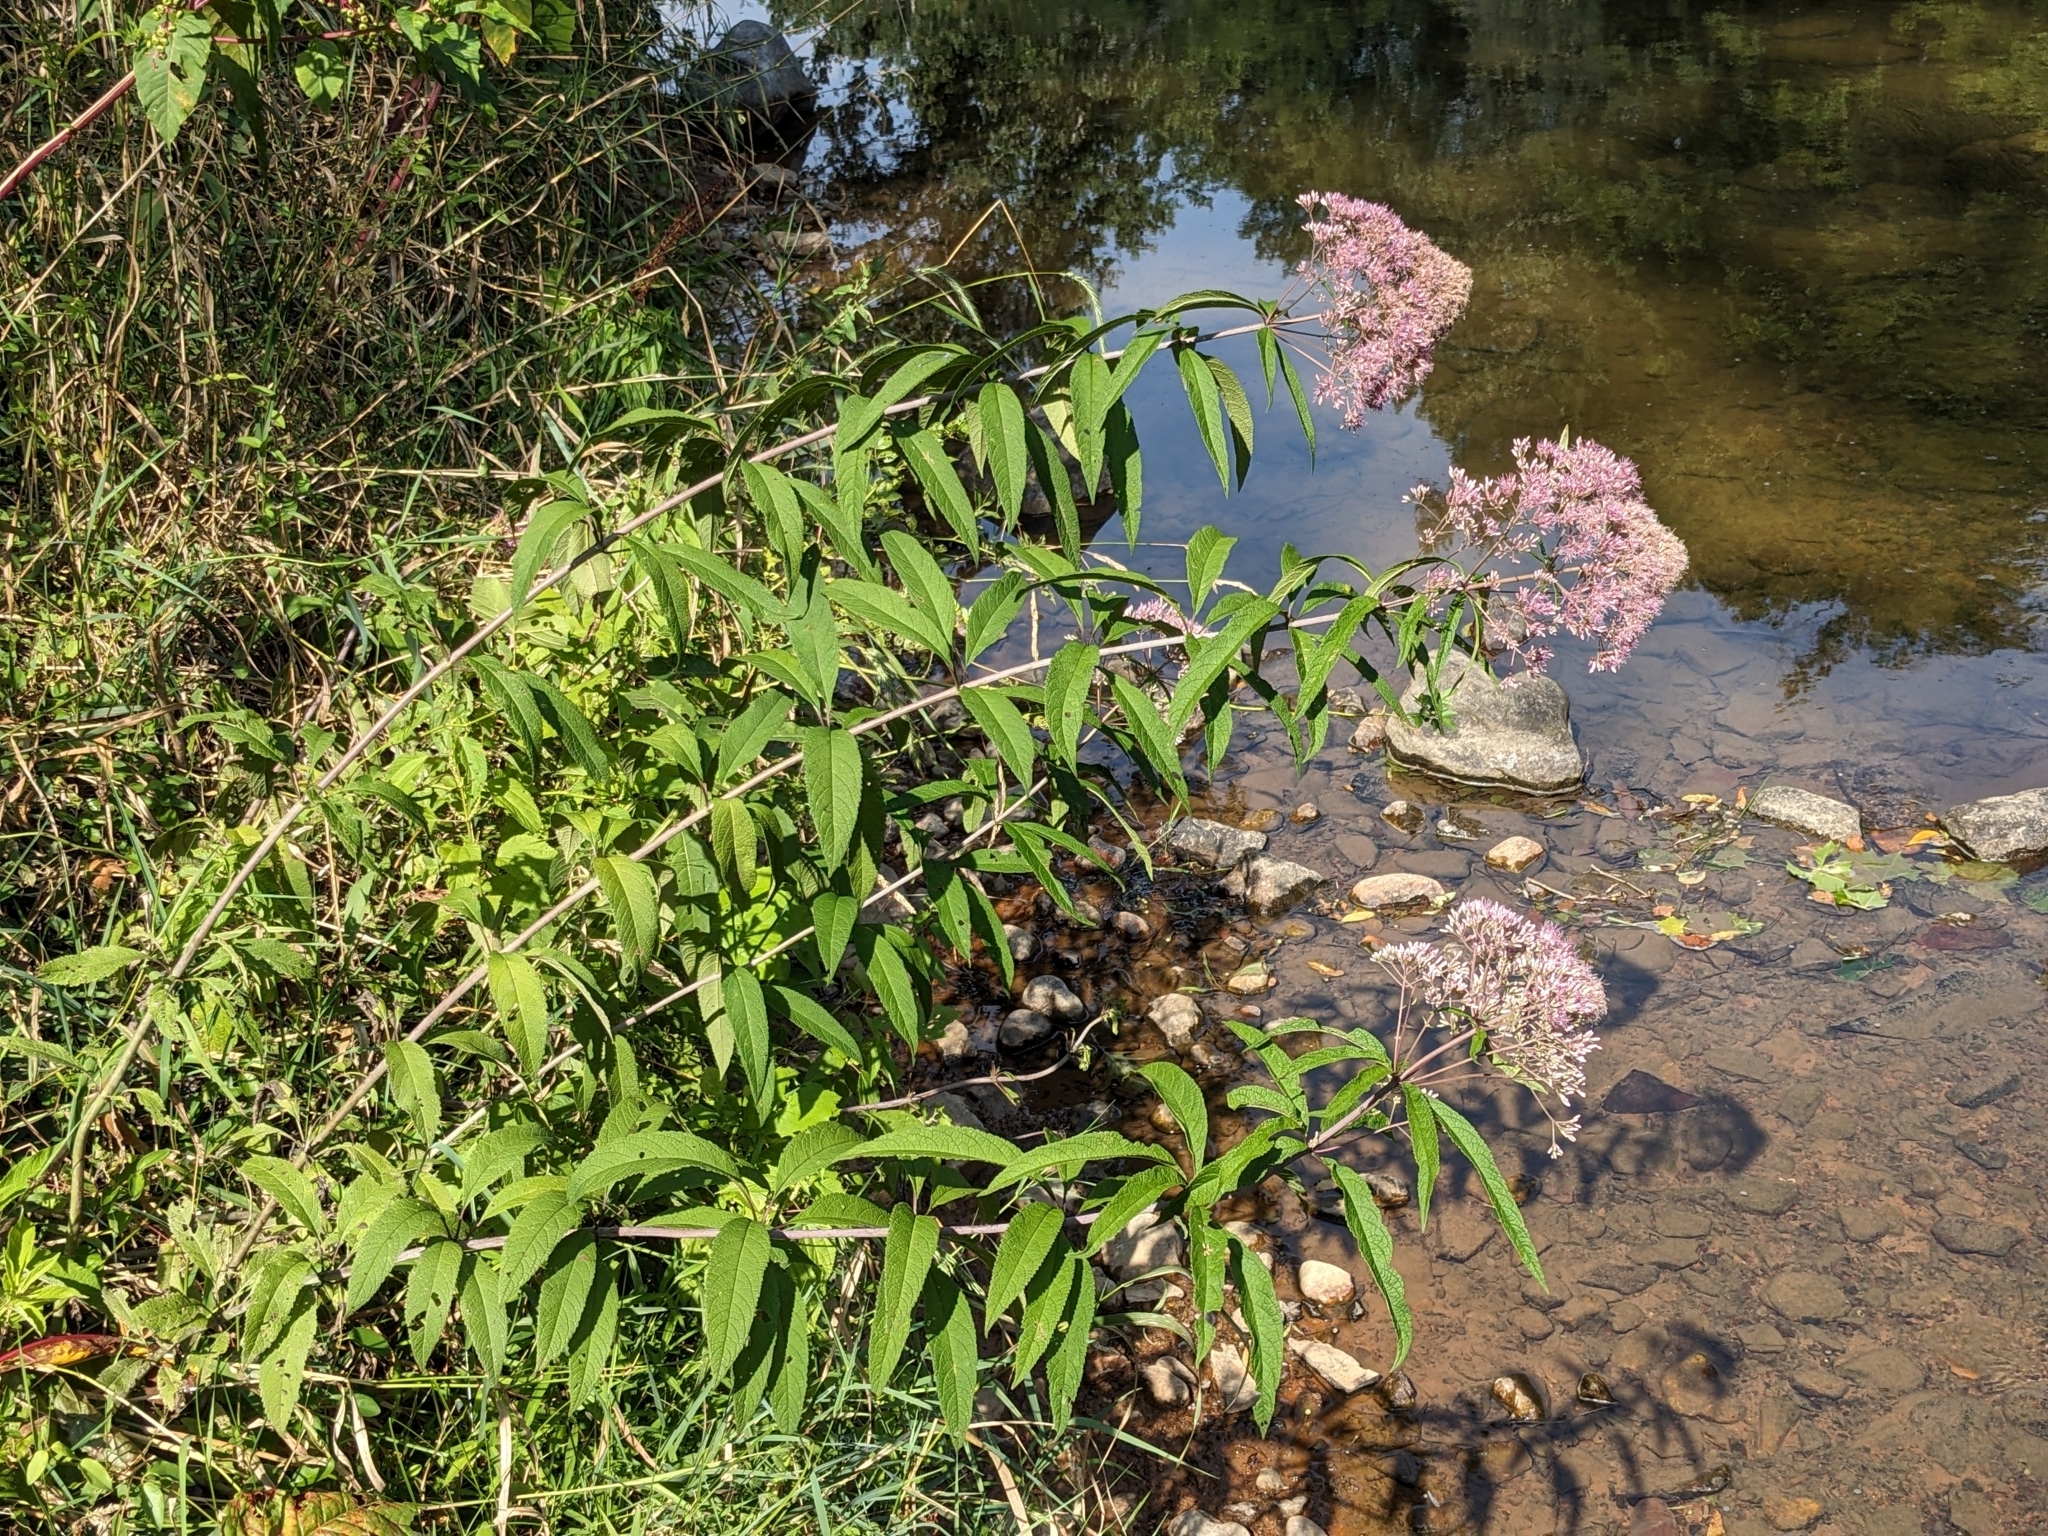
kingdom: Plantae
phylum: Tracheophyta
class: Magnoliopsida
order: Asterales
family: Asteraceae
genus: Eutrochium
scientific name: Eutrochium fistulosum
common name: Trumpetweed
